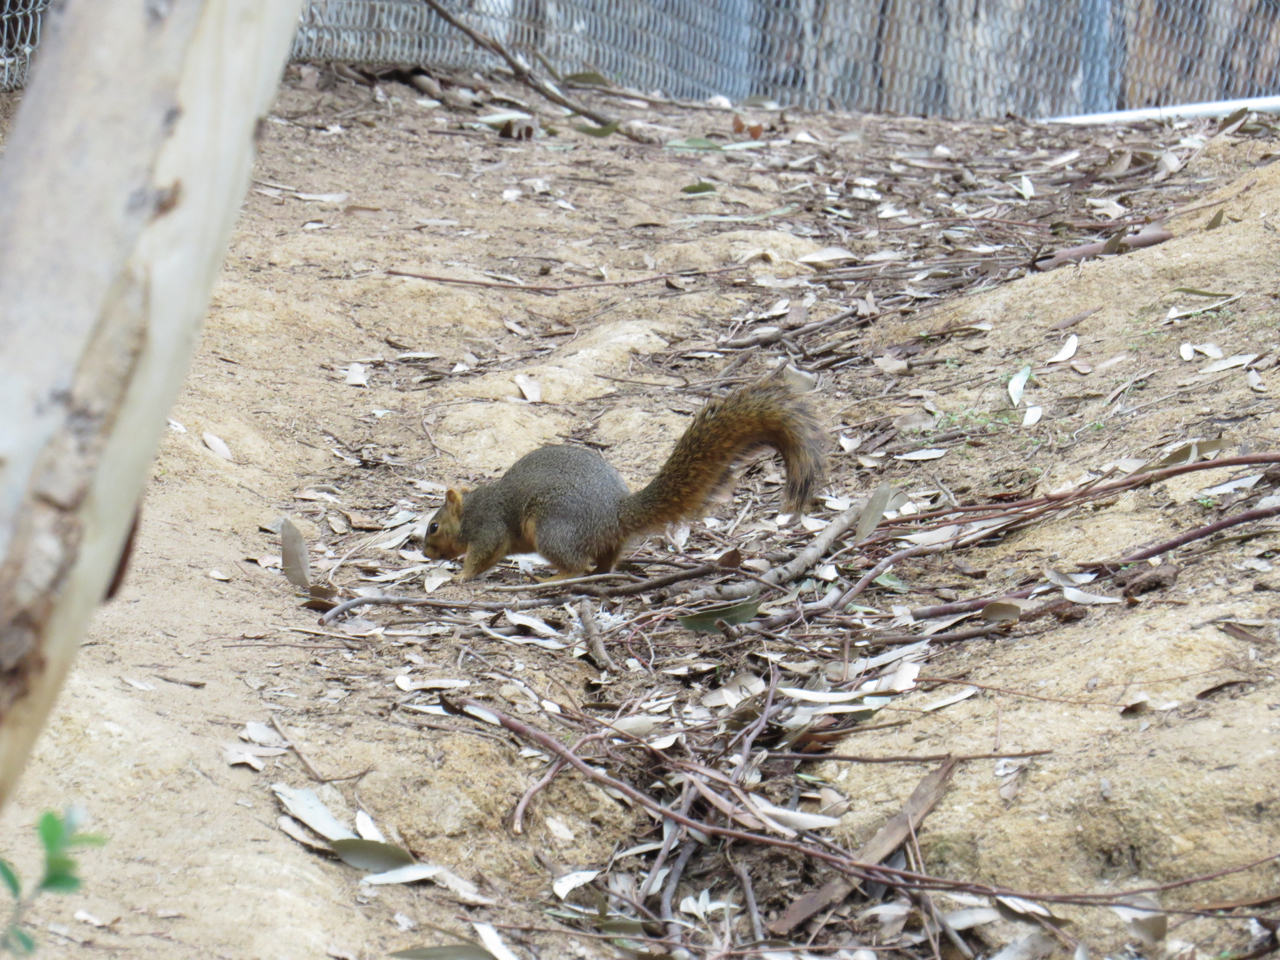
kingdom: Animalia
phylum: Chordata
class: Mammalia
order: Rodentia
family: Sciuridae
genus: Sciurus
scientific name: Sciurus niger
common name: Fox squirrel
